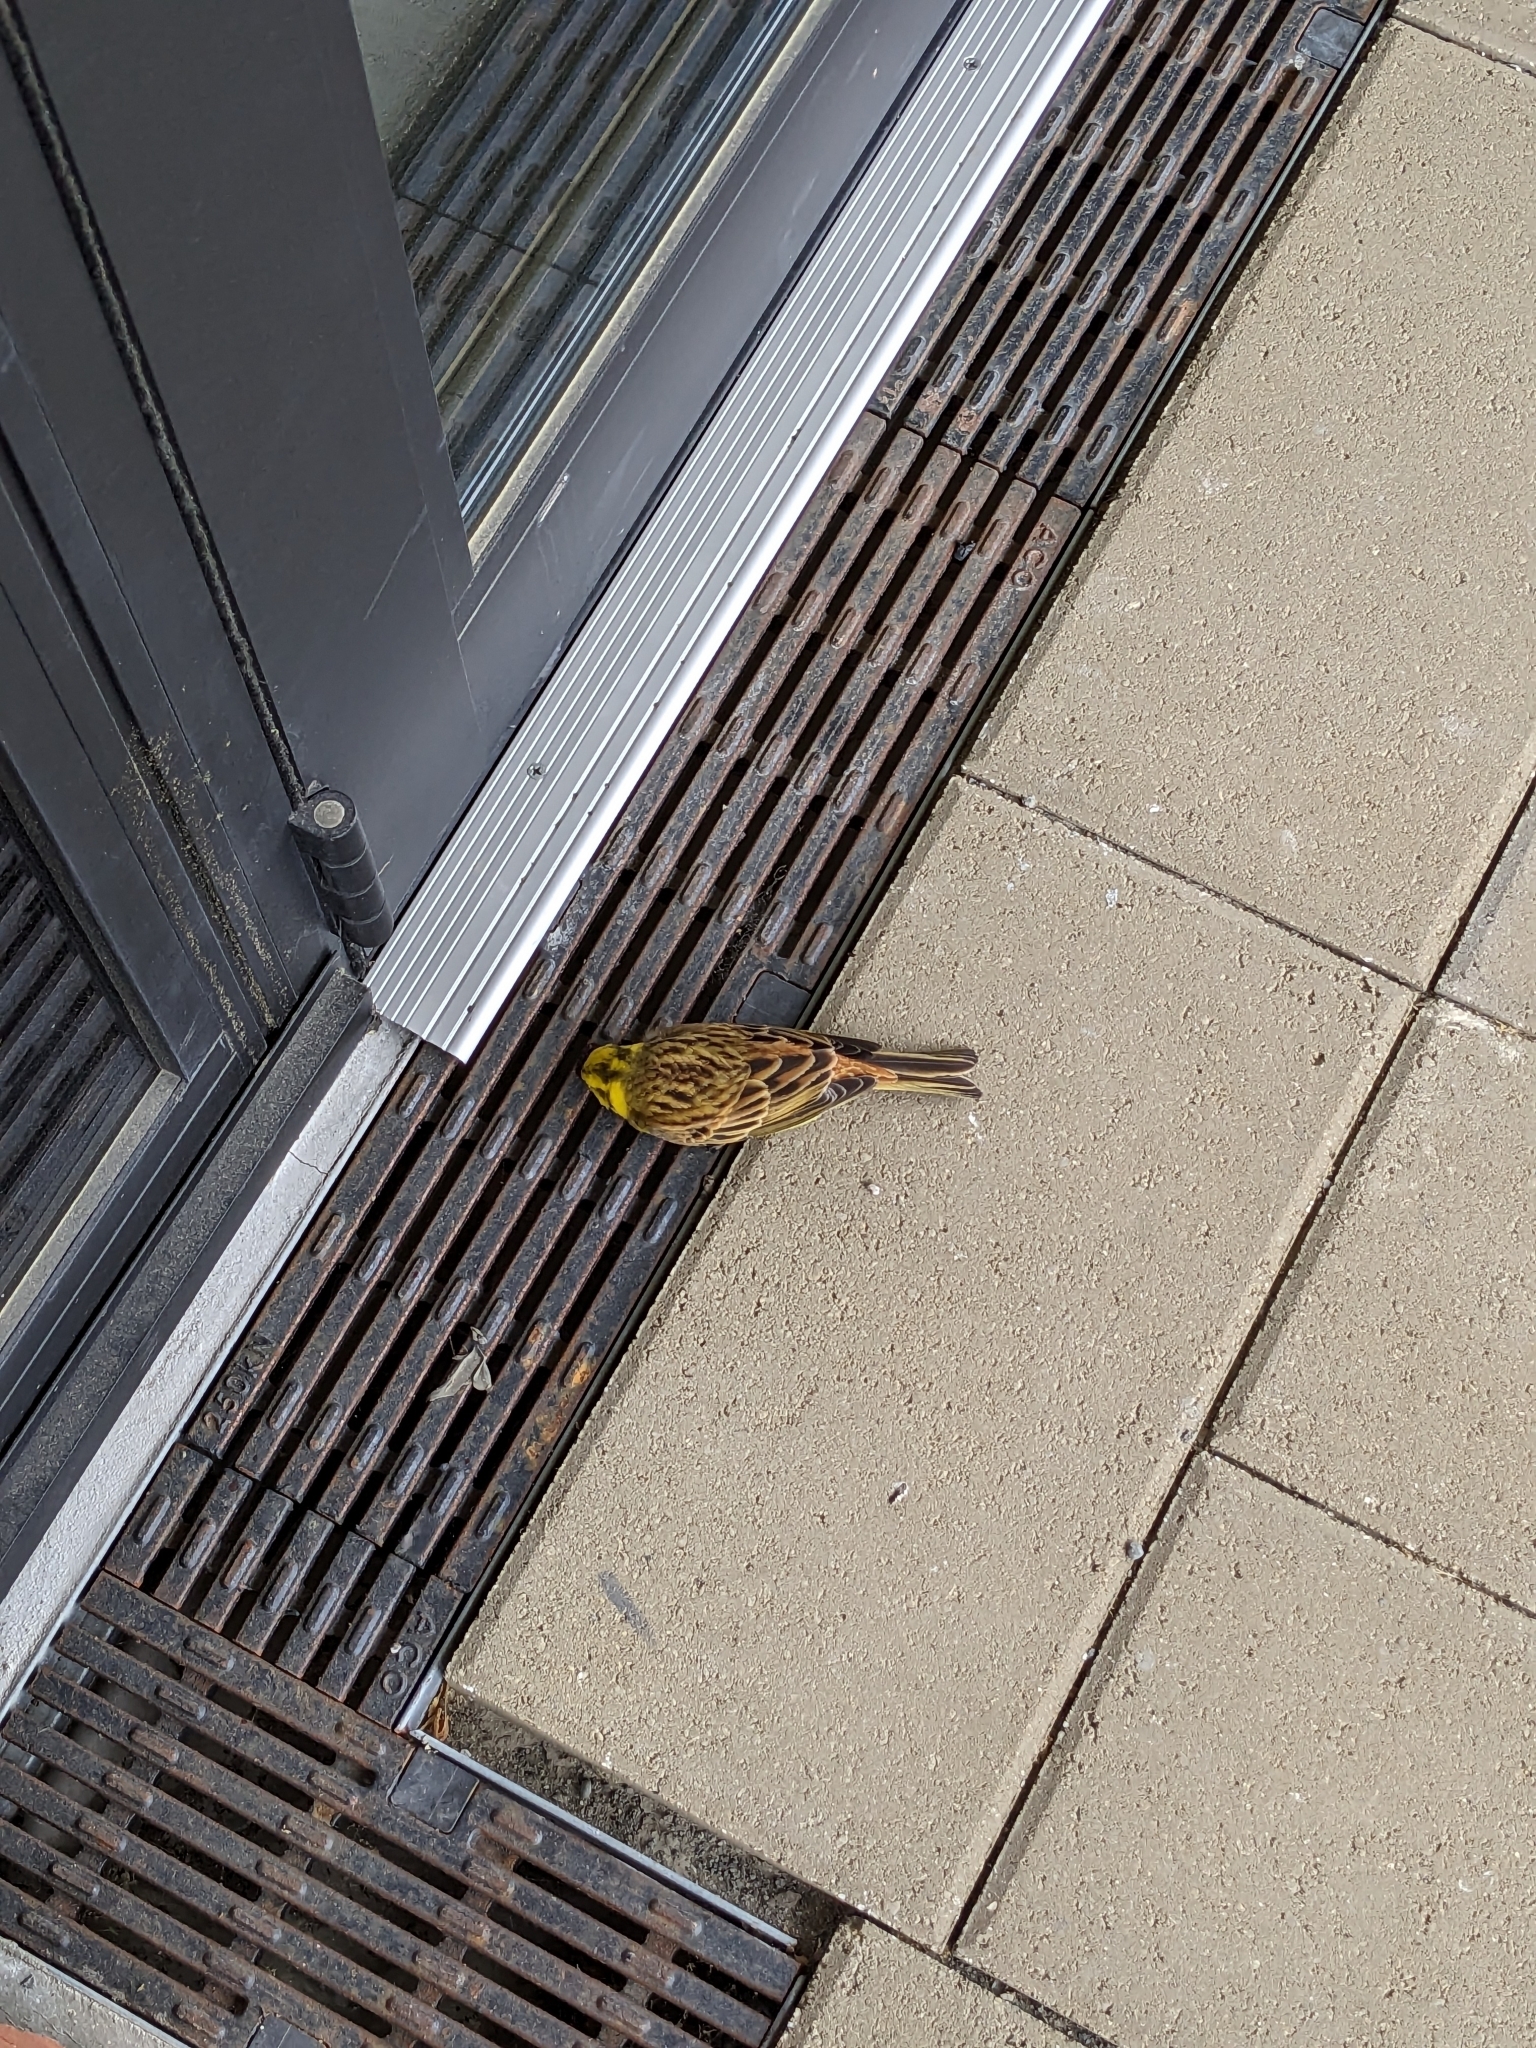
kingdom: Animalia
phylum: Chordata
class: Aves
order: Passeriformes
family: Emberizidae
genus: Emberiza
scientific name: Emberiza citrinella
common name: Yellowhammer
